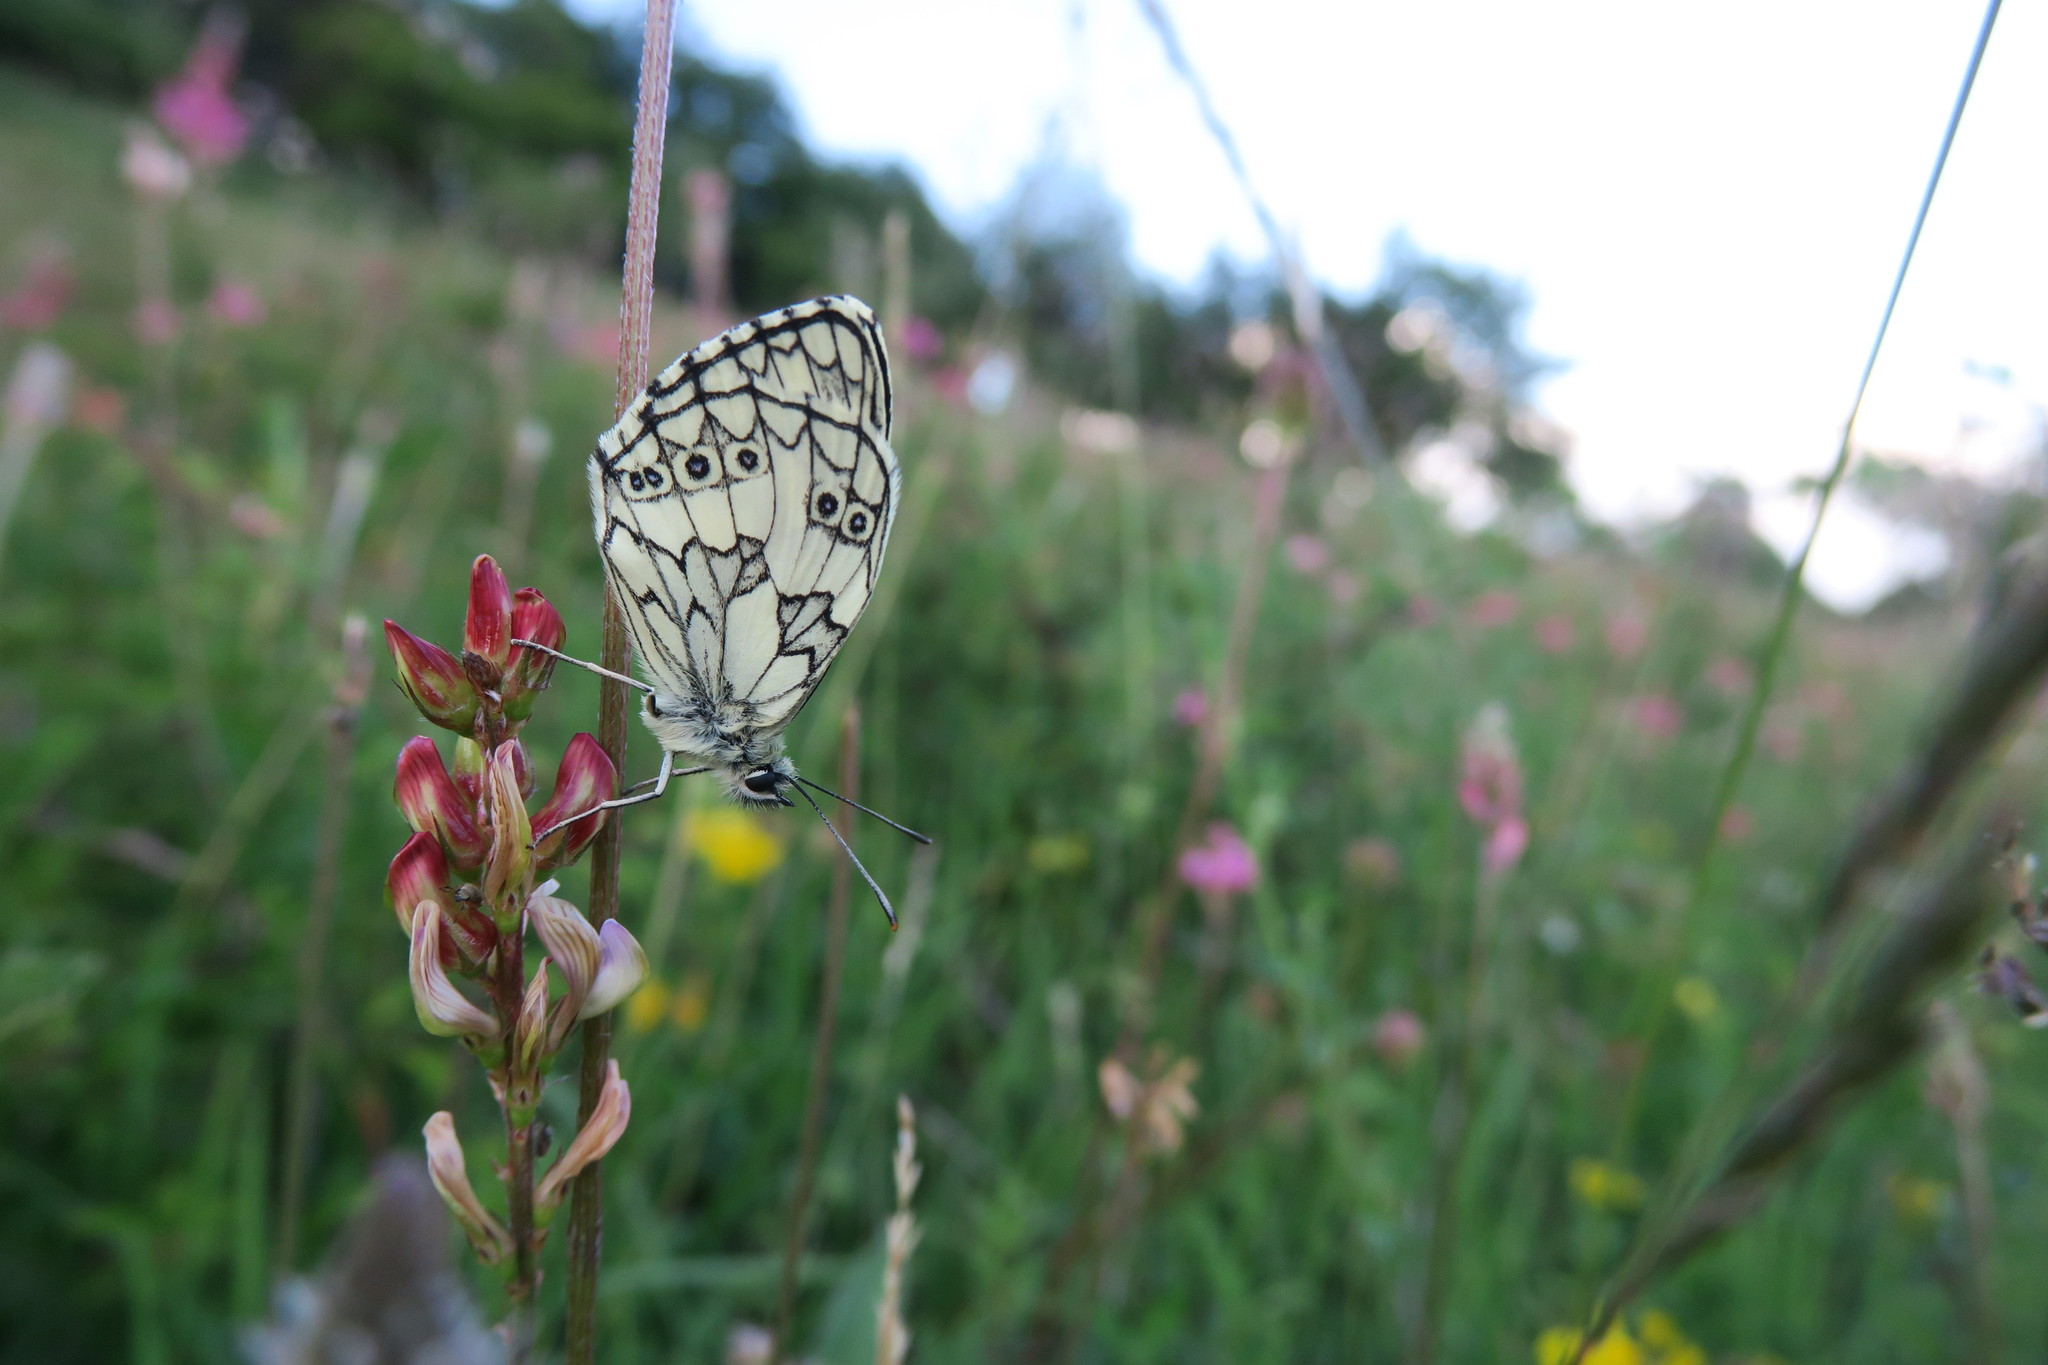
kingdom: Animalia
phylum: Arthropoda
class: Insecta
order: Lepidoptera
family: Nymphalidae
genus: Melanargia
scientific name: Melanargia galathea
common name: Marbled white
